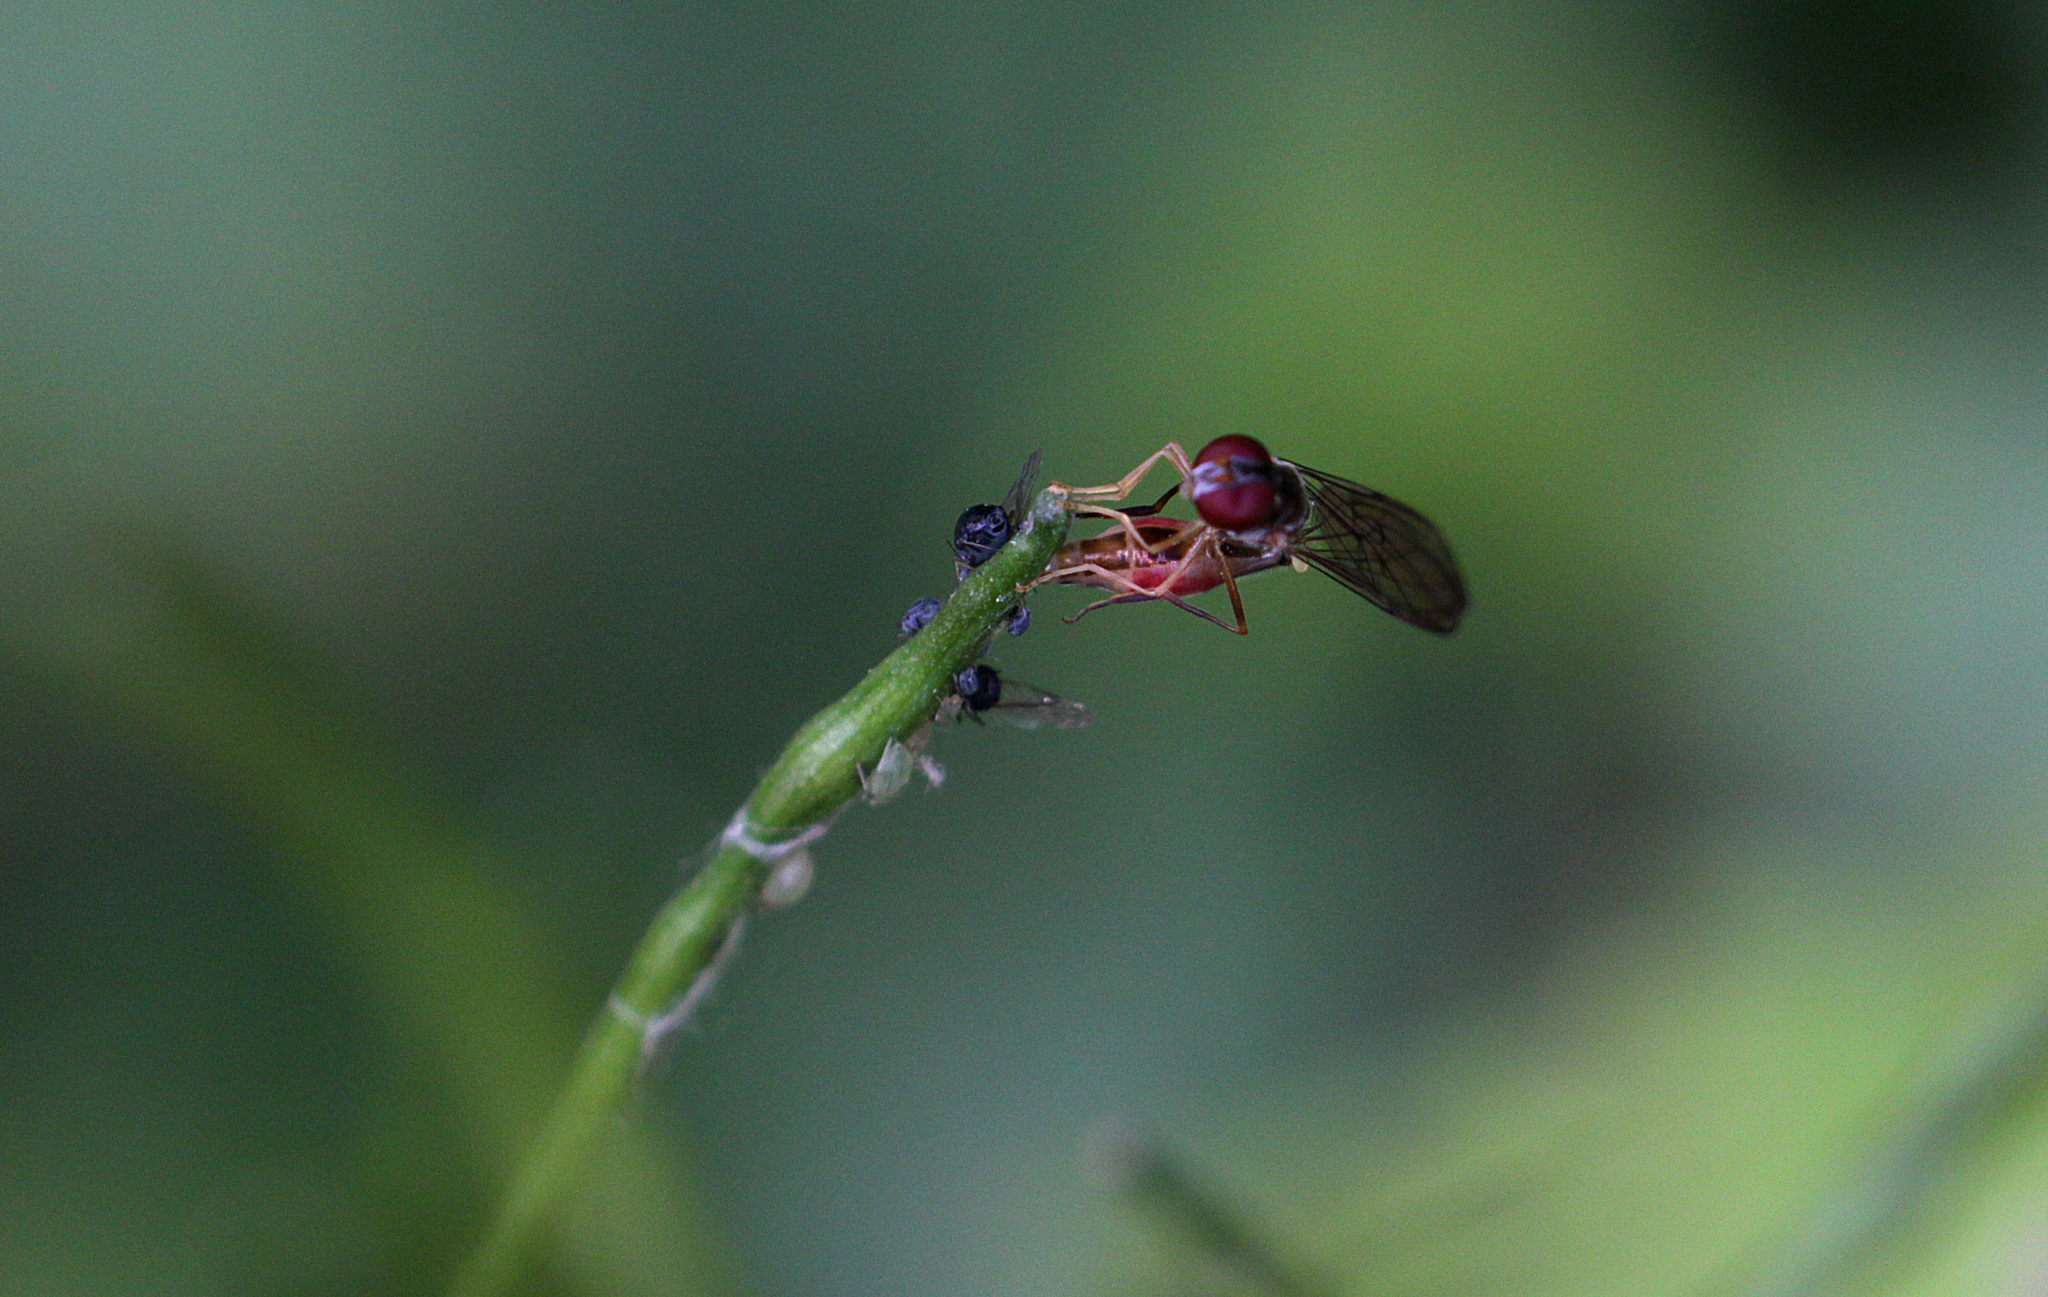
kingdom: Animalia
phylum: Arthropoda
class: Insecta
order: Diptera
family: Syrphidae
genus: Baccha
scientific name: Baccha elongata
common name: Common dainty
